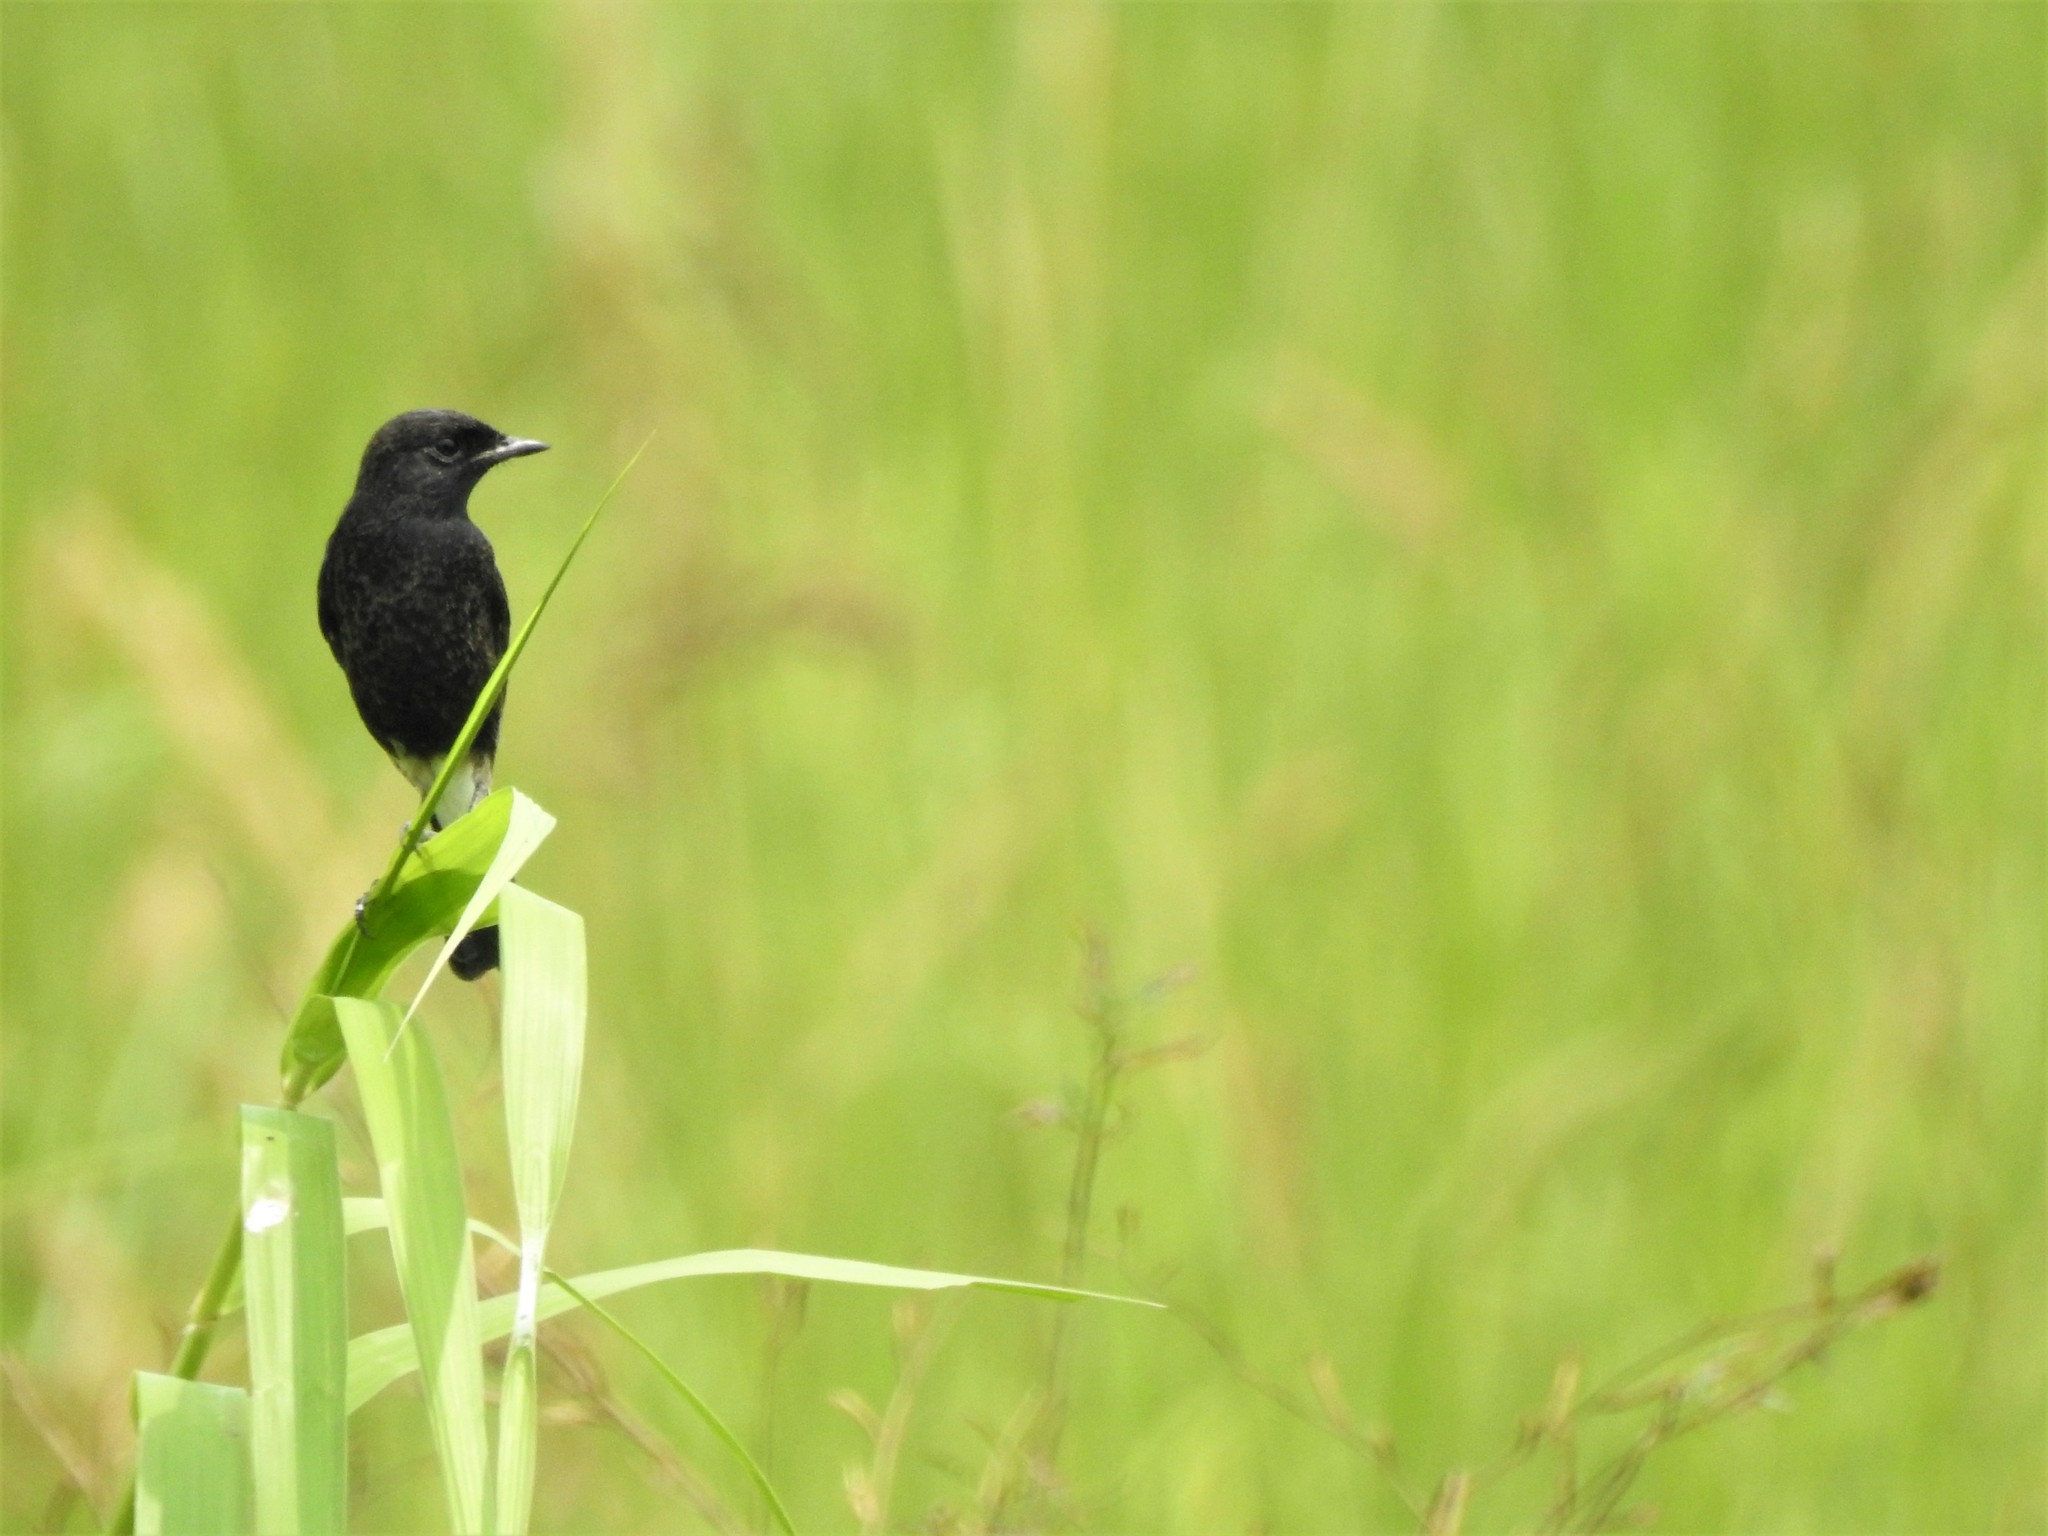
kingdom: Animalia
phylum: Chordata
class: Aves
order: Passeriformes
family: Muscicapidae
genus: Saxicola
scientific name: Saxicola caprata
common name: Pied bush chat
